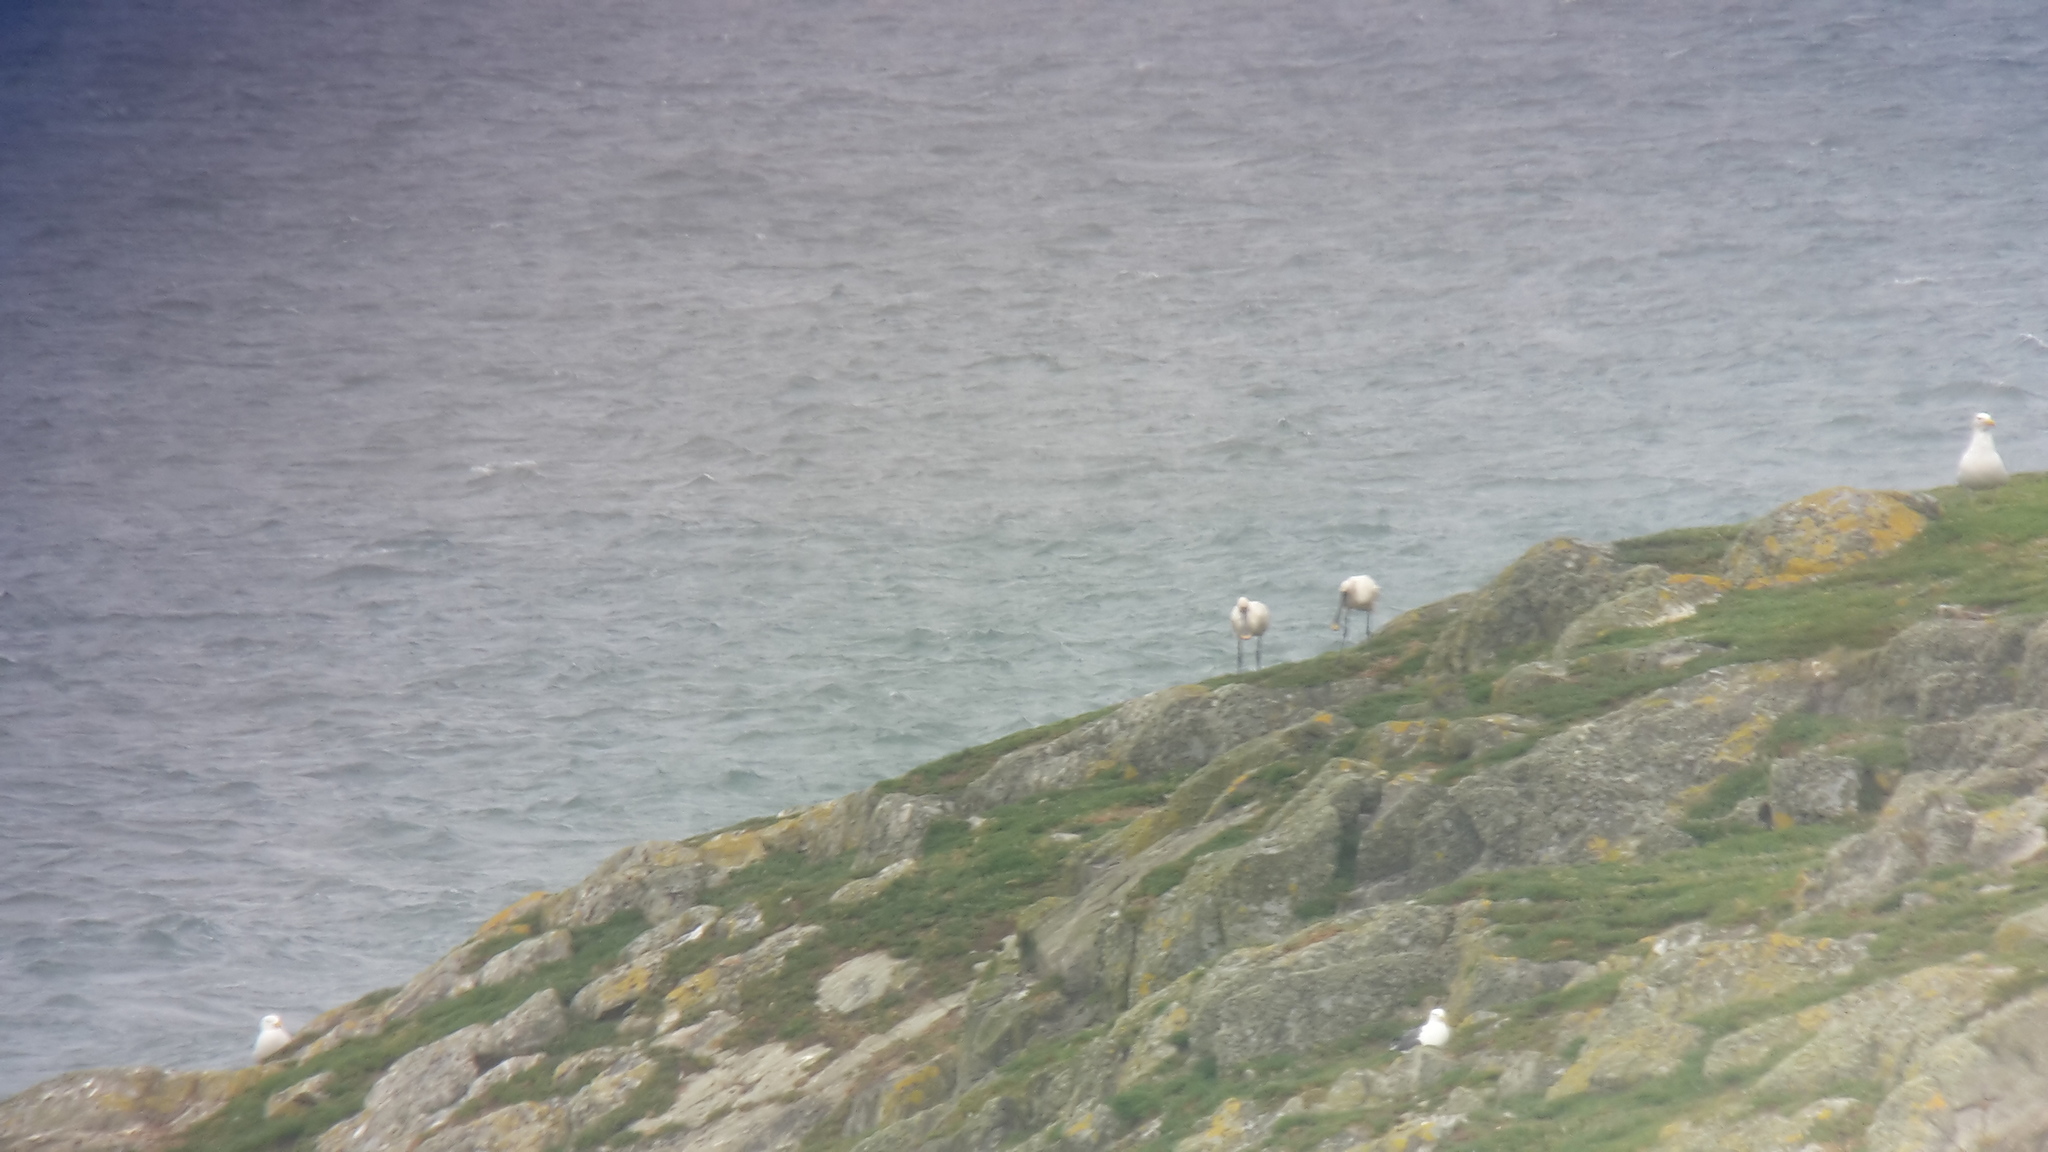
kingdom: Animalia
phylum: Chordata
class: Aves
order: Pelecaniformes
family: Threskiornithidae
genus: Platalea
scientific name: Platalea leucorodia
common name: Eurasian spoonbill
